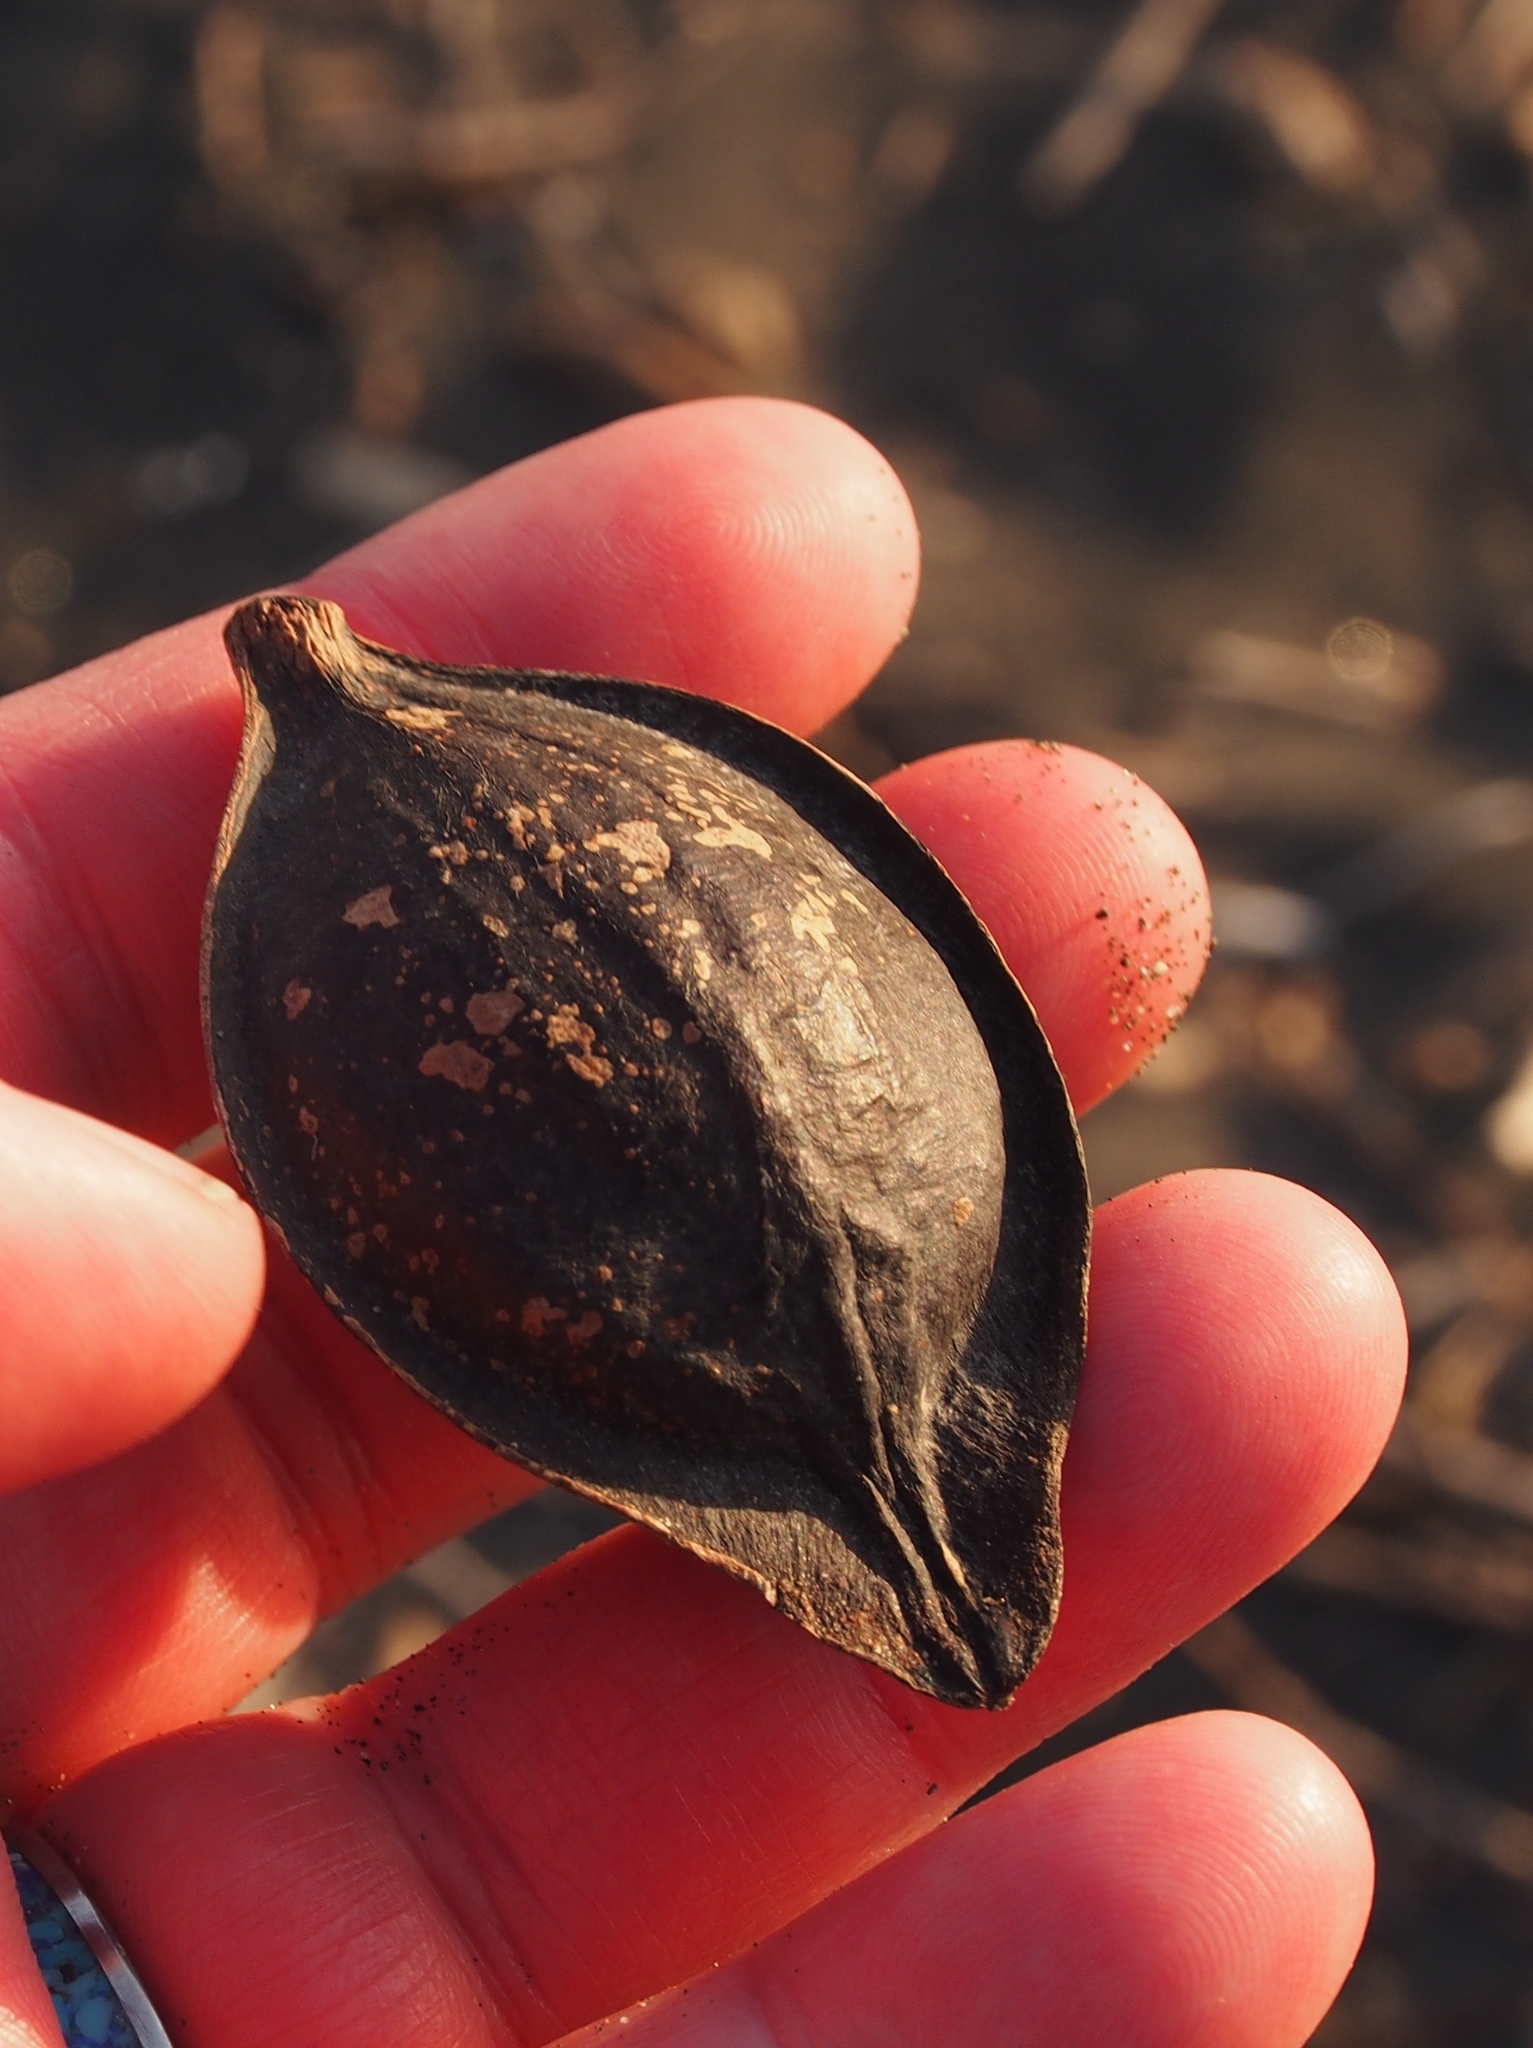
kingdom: Plantae
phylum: Tracheophyta
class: Magnoliopsida
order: Myrtales
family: Combretaceae
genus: Terminalia
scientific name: Terminalia catappa
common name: Tropical almond
